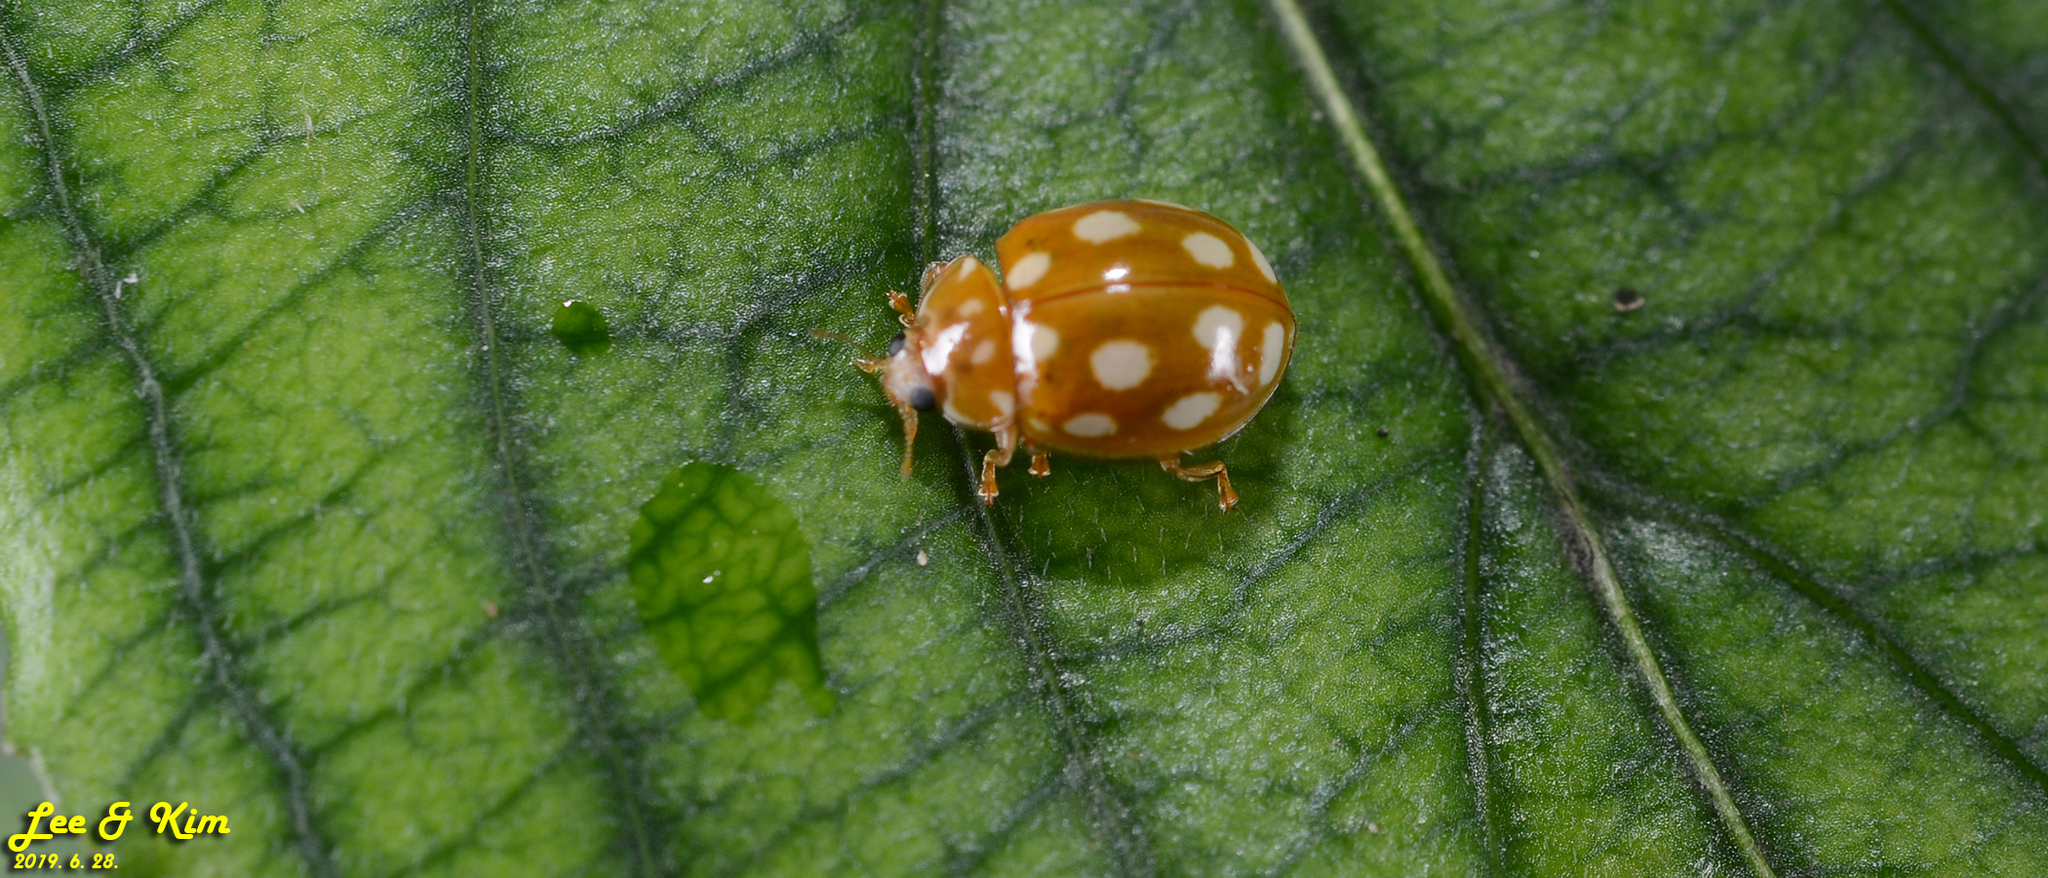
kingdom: Animalia
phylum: Arthropoda
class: Insecta
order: Coleoptera
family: Coccinellidae
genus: Calvia
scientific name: Calvia muiri
